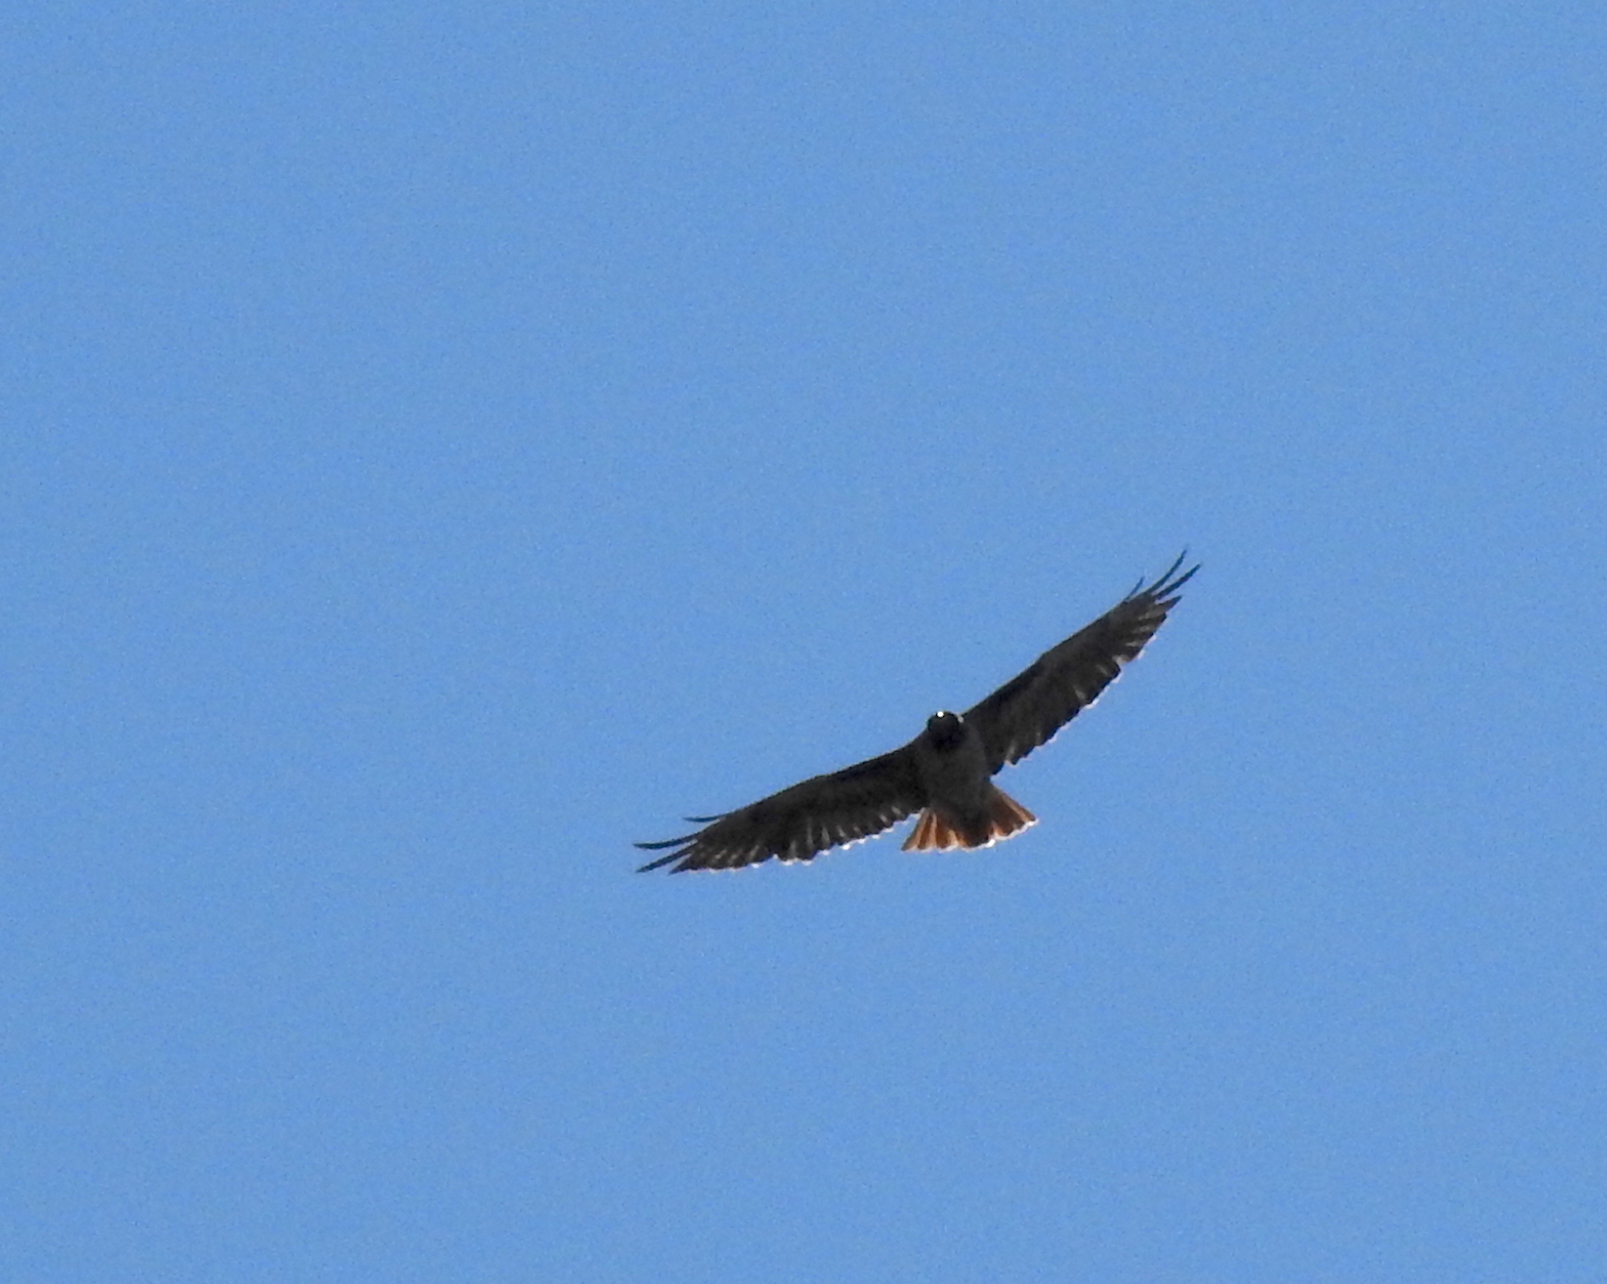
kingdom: Animalia
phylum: Chordata
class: Aves
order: Accipitriformes
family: Accipitridae
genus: Buteo
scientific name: Buteo jamaicensis
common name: Red-tailed hawk
